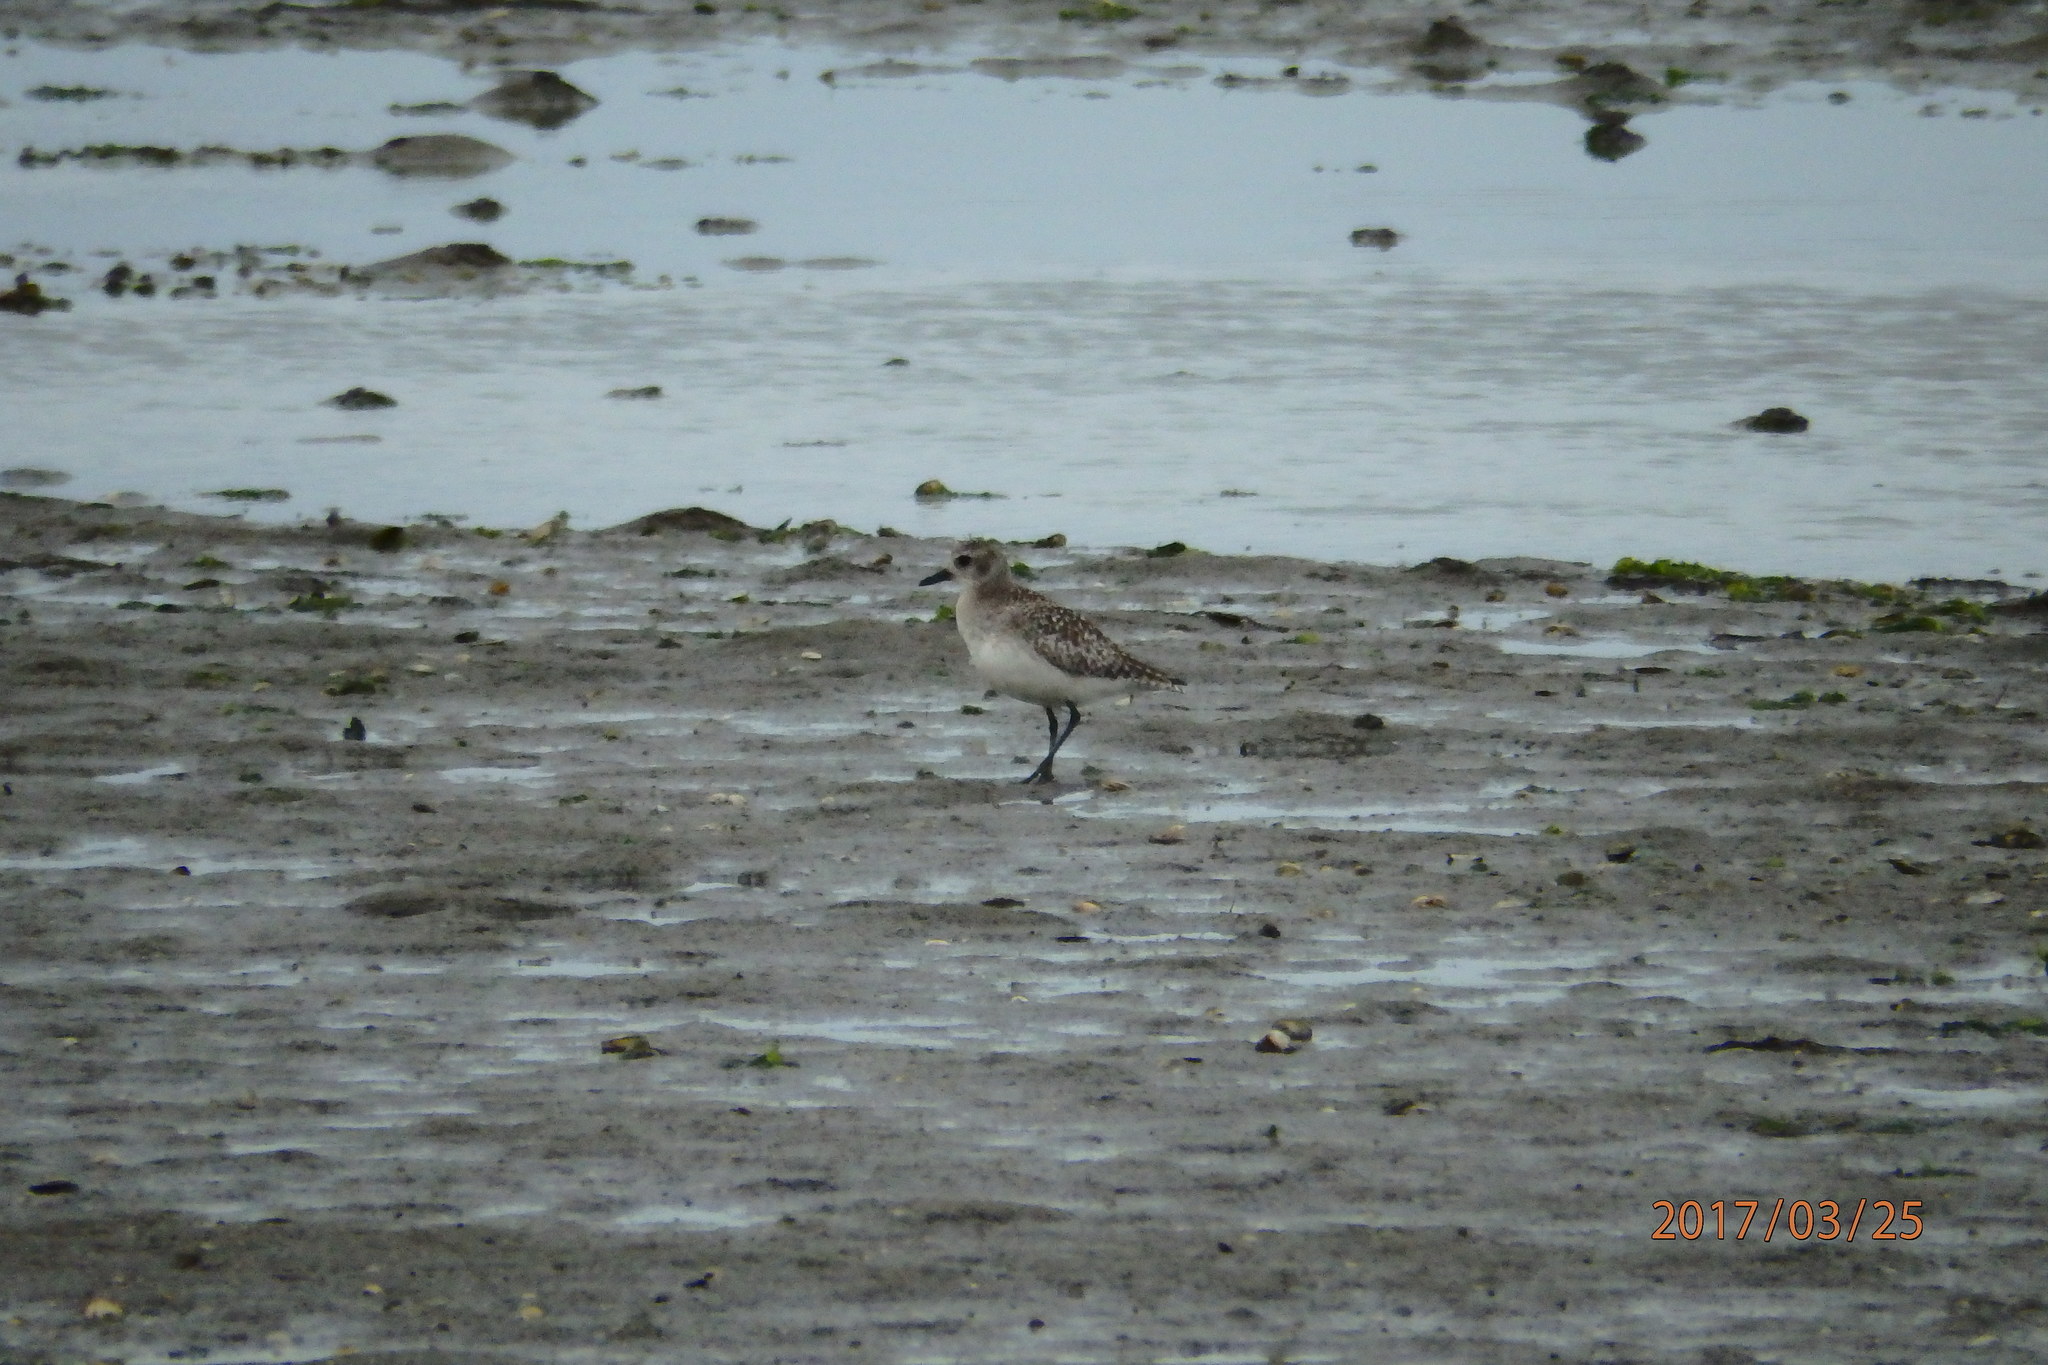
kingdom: Animalia
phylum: Chordata
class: Aves
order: Charadriiformes
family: Charadriidae
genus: Pluvialis
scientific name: Pluvialis squatarola
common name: Grey plover
